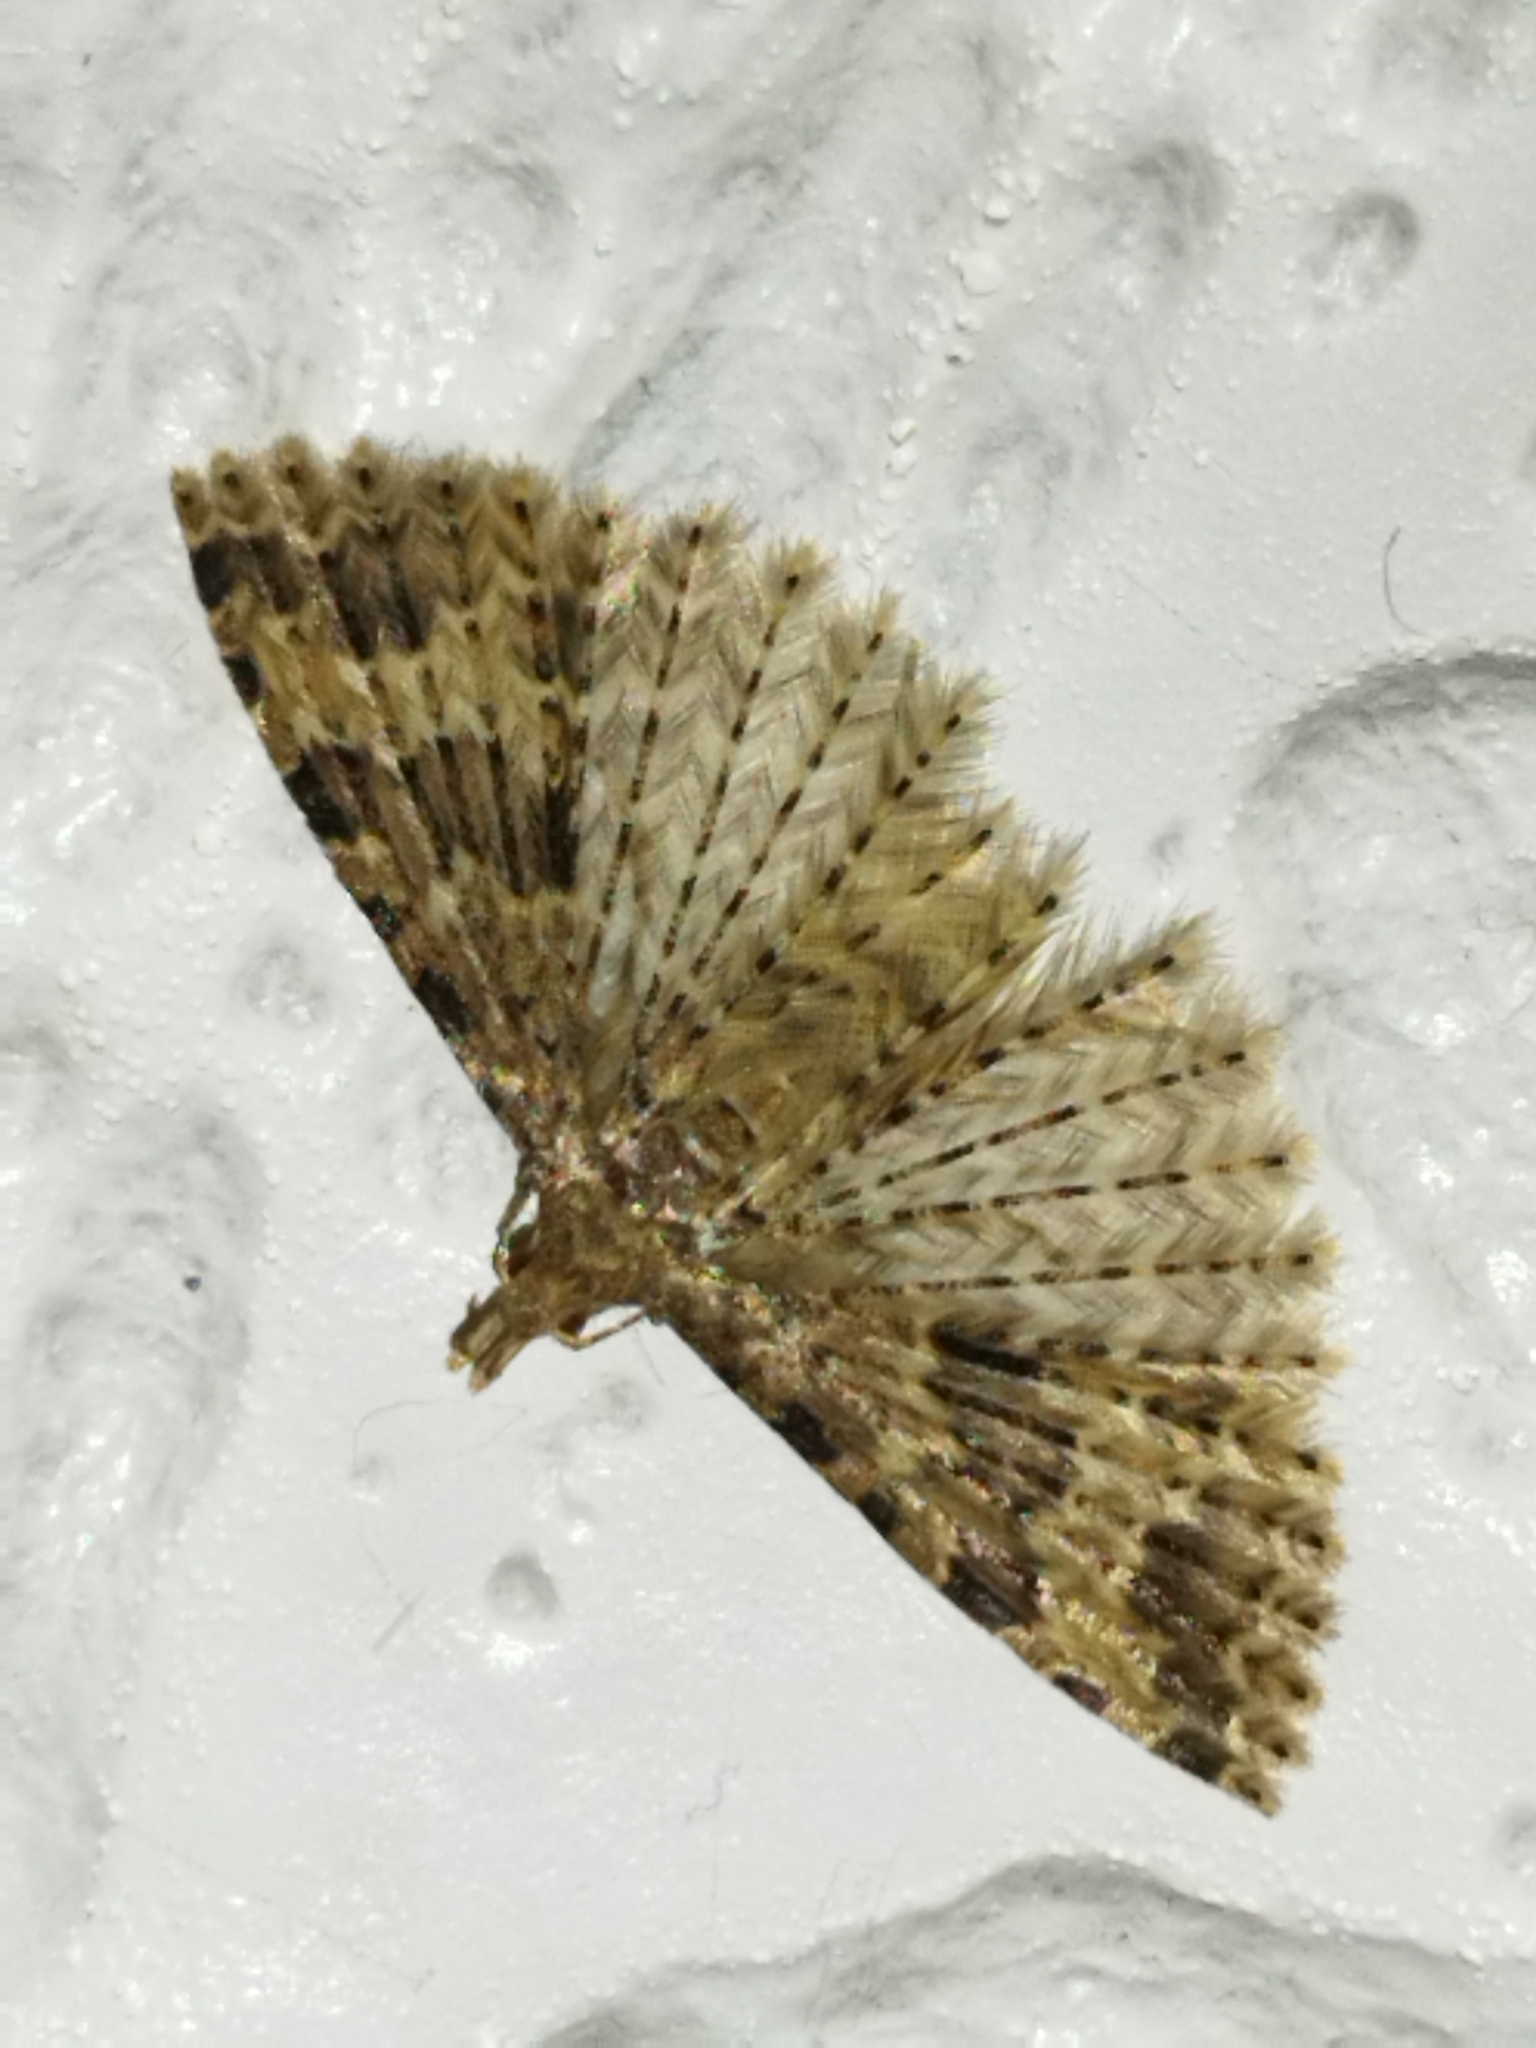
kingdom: Animalia
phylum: Arthropoda
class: Insecta
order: Lepidoptera
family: Alucitidae
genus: Alucita
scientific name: Alucita hexadactyla
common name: Twenty-plume moth
